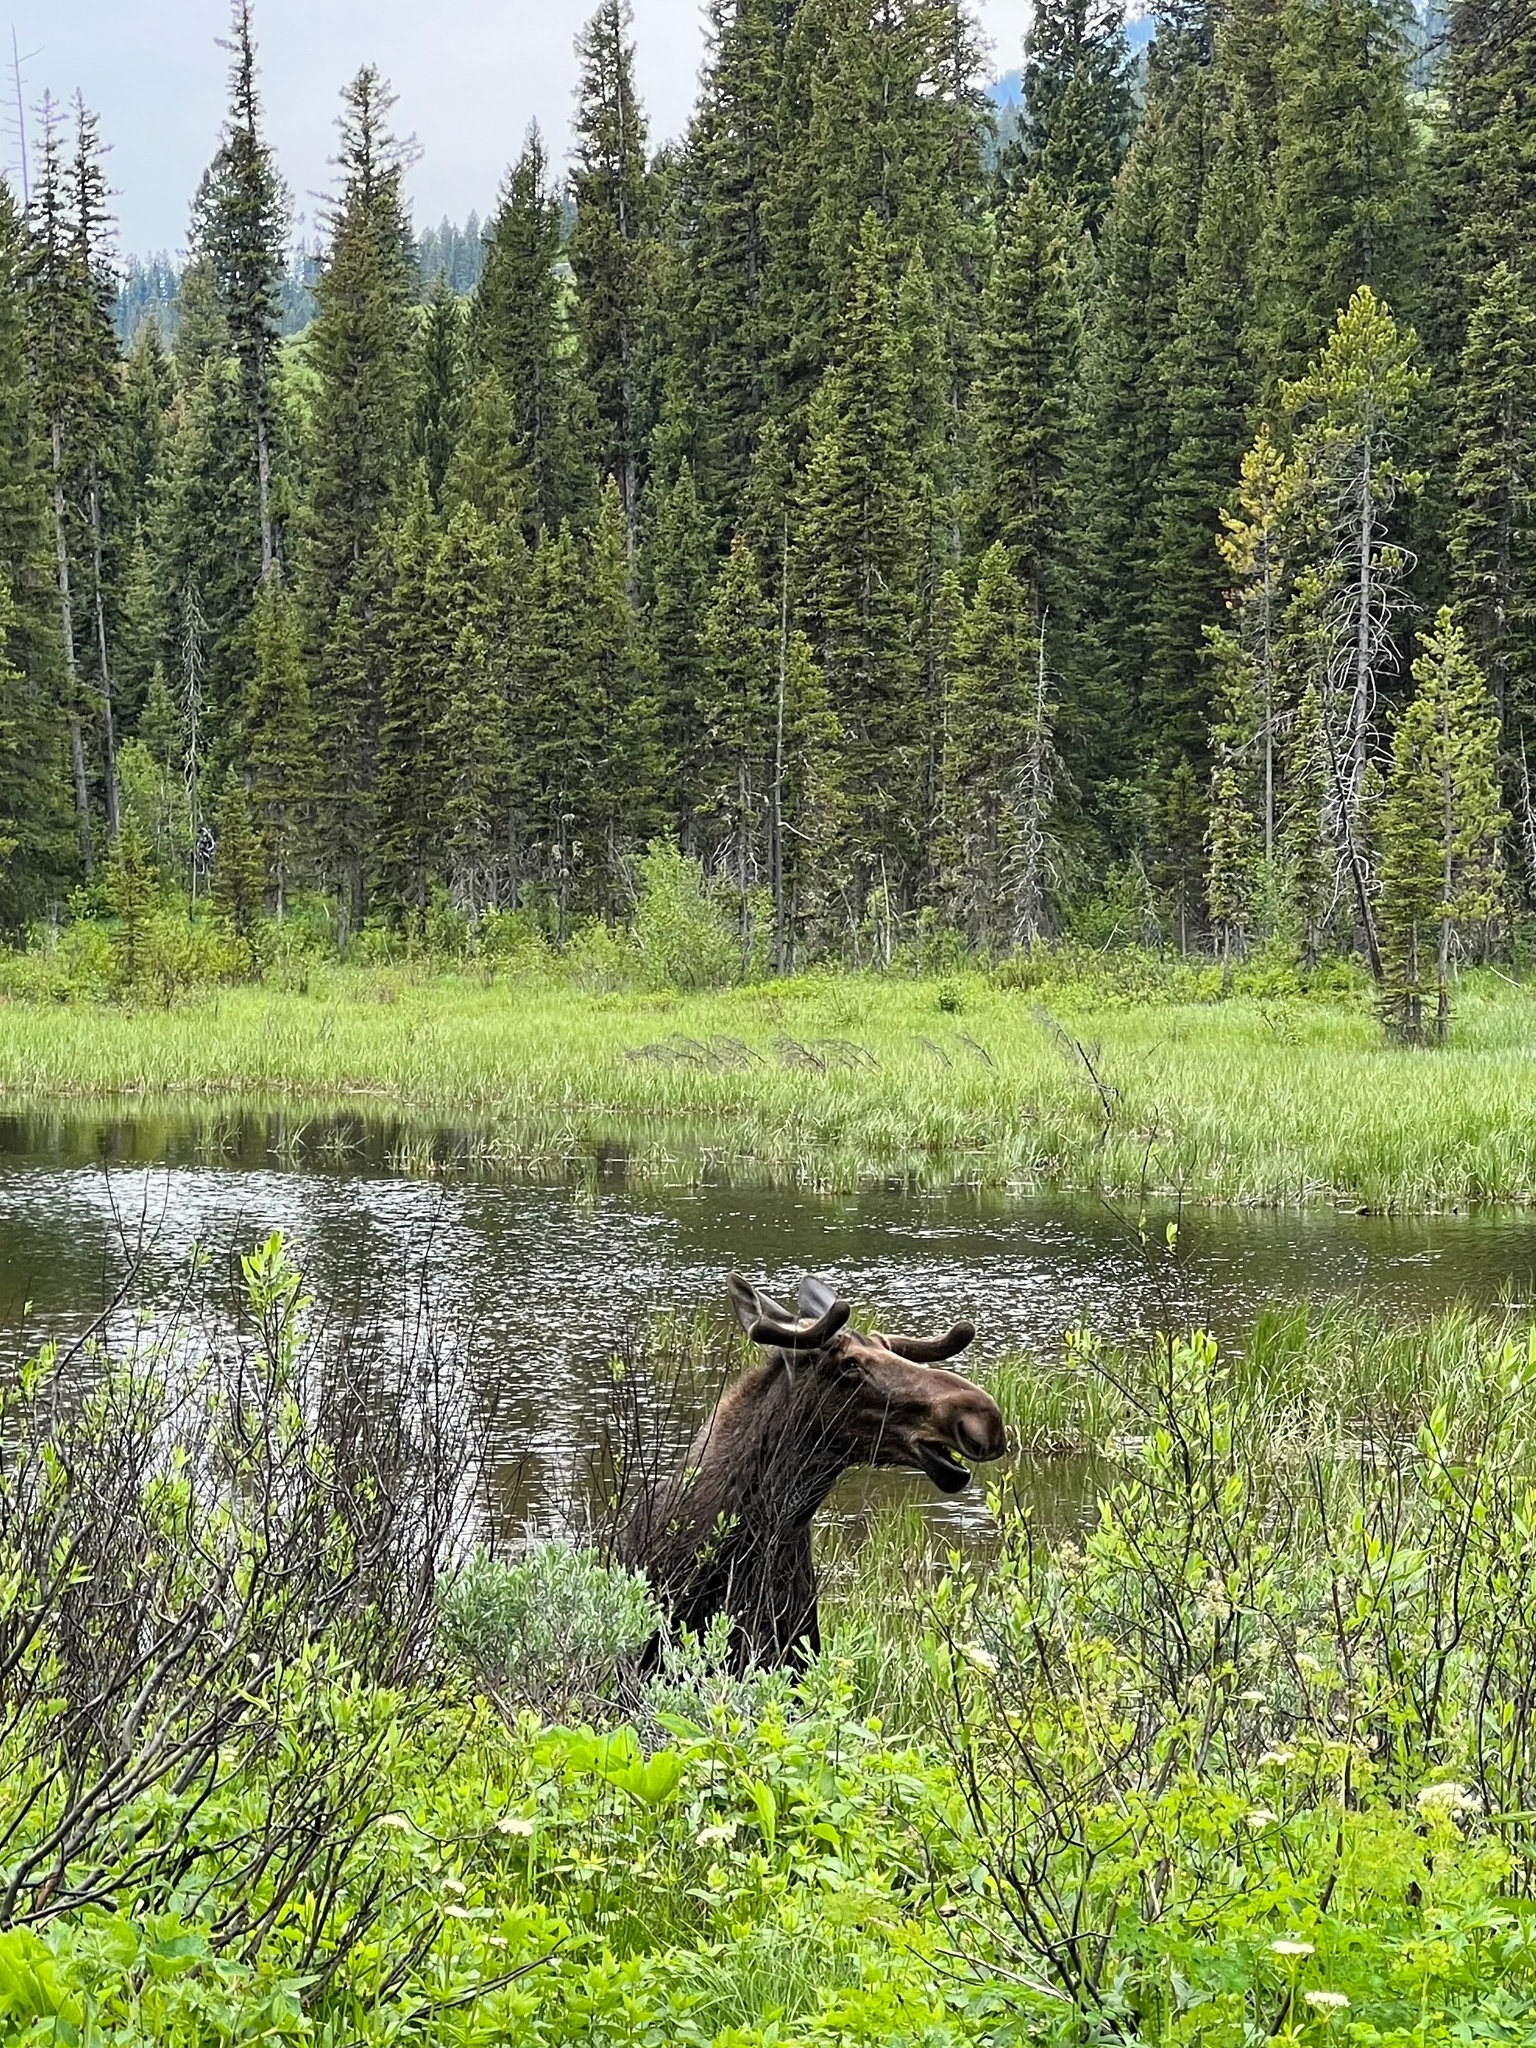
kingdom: Animalia
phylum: Chordata
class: Mammalia
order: Artiodactyla
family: Cervidae
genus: Alces
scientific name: Alces alces
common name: Moose
